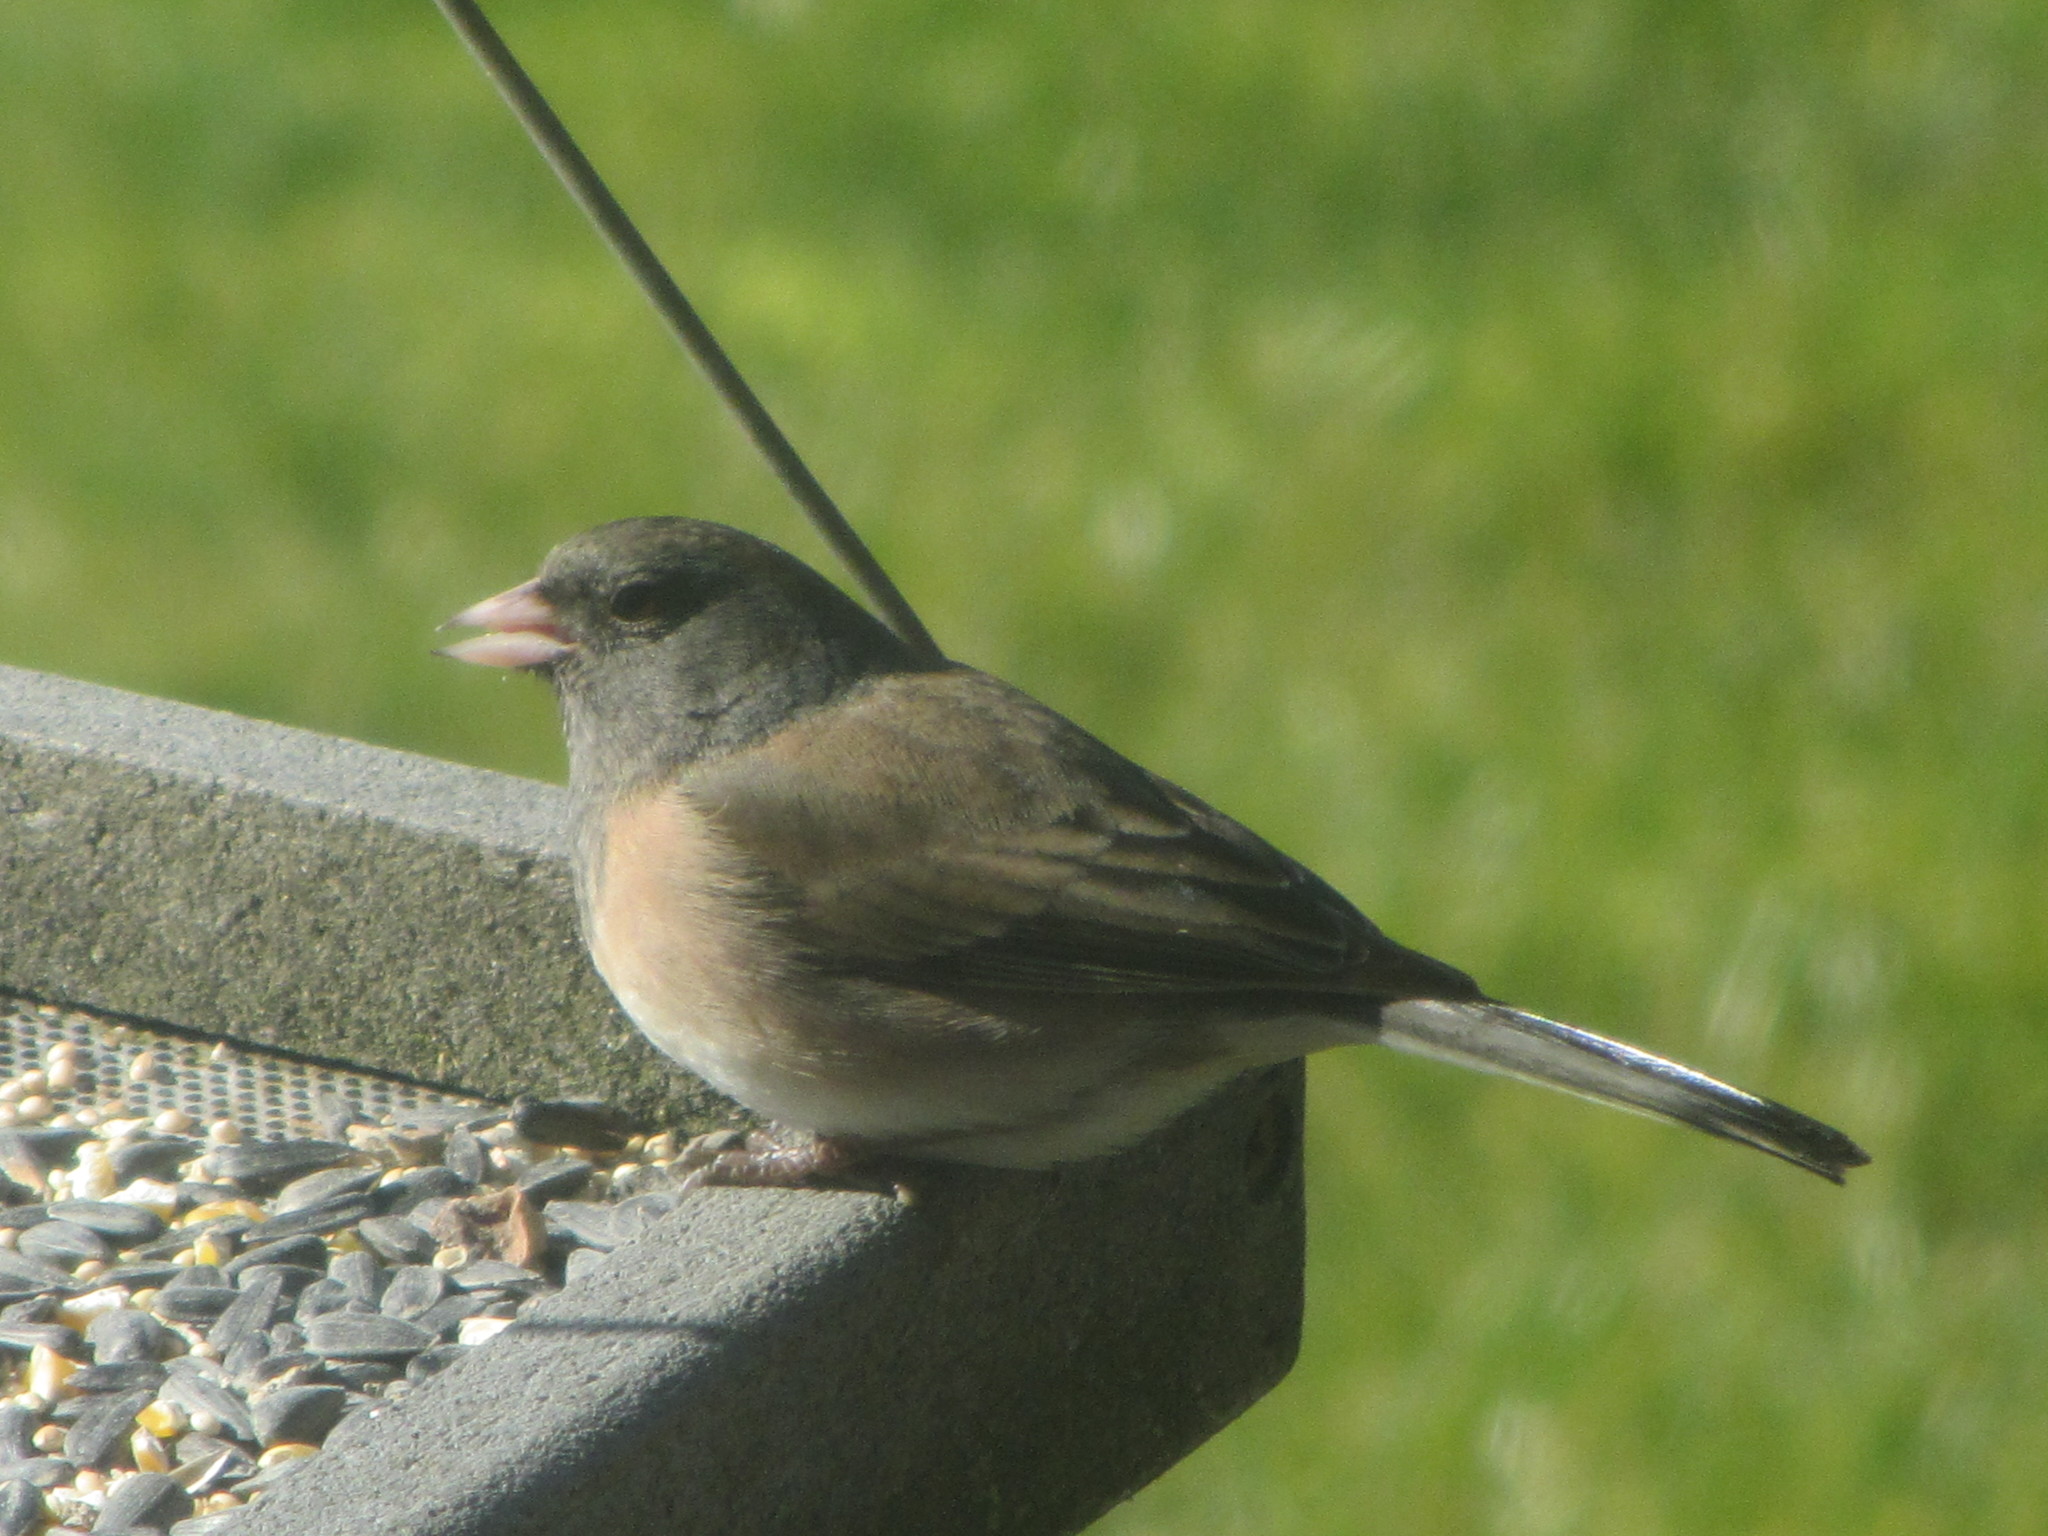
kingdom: Animalia
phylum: Chordata
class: Aves
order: Passeriformes
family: Passerellidae
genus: Junco
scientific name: Junco hyemalis
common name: Dark-eyed junco
